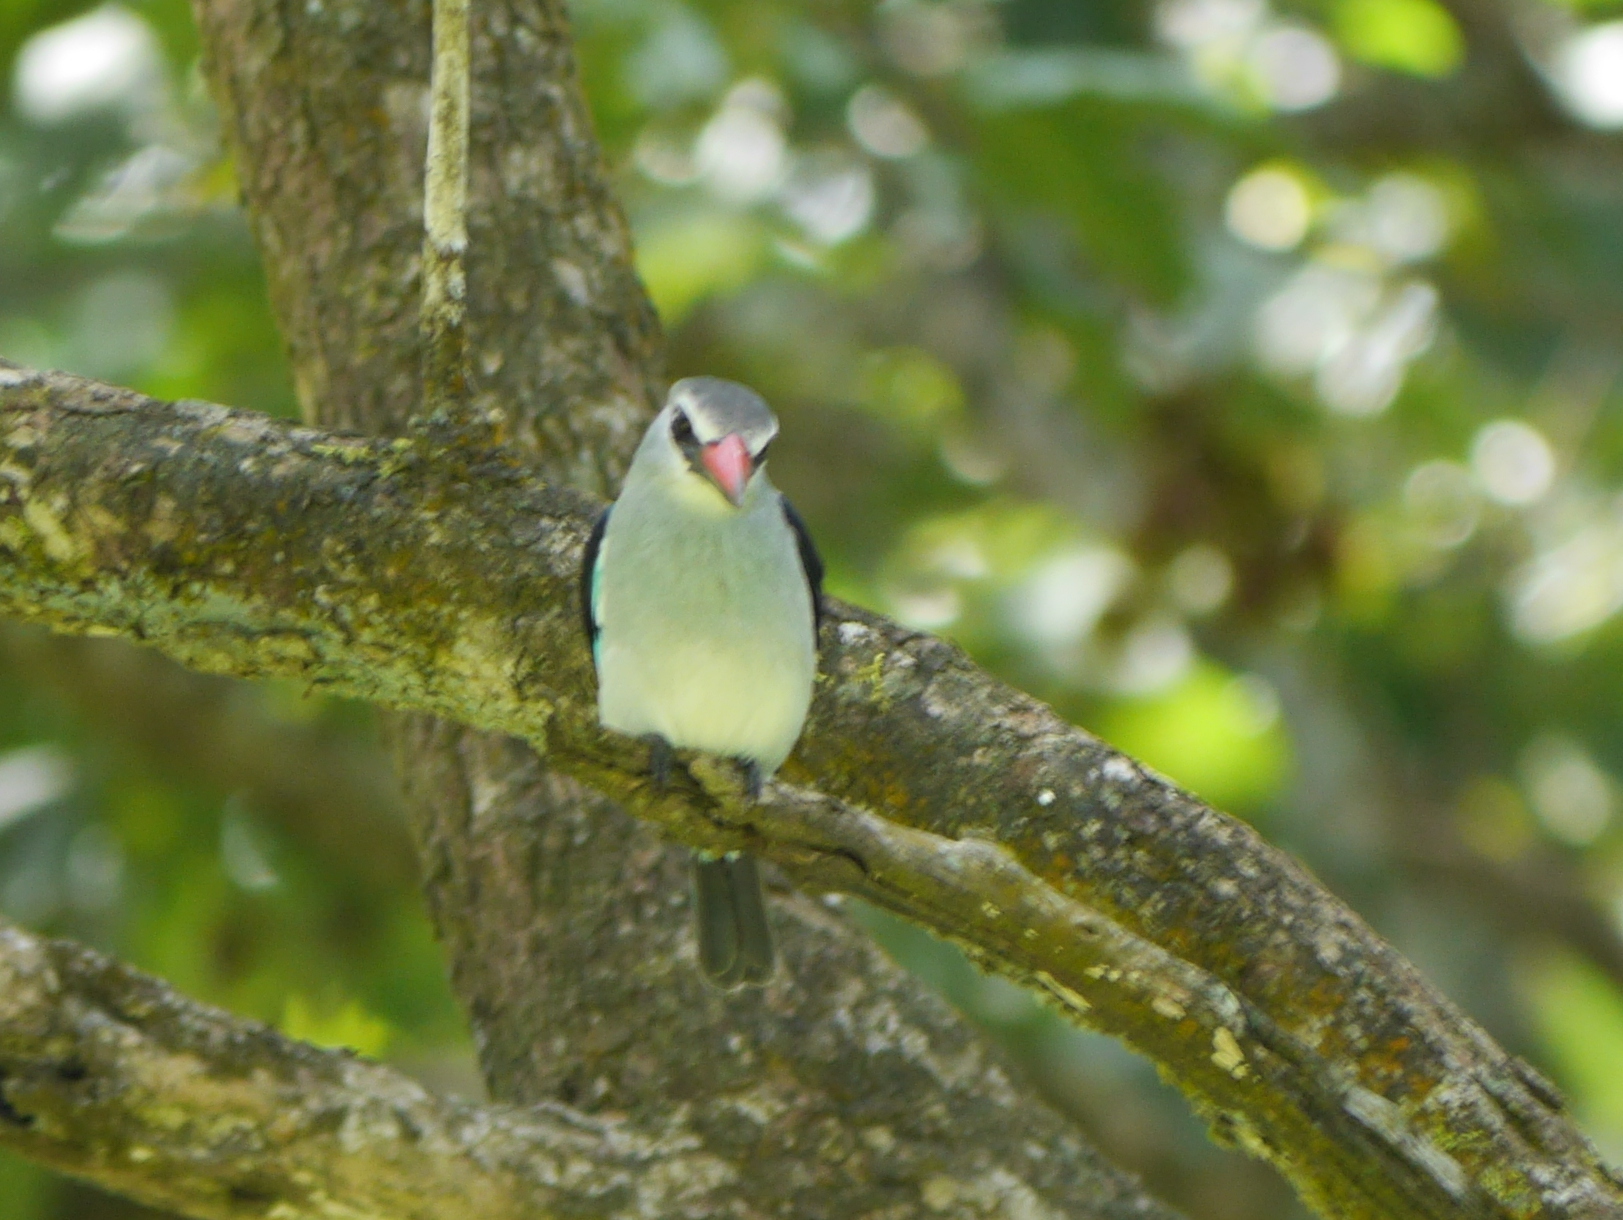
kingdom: Animalia
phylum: Chordata
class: Aves
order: Coraciiformes
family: Alcedinidae
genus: Halcyon
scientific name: Halcyon senegalensis
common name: Woodland kingfisher
